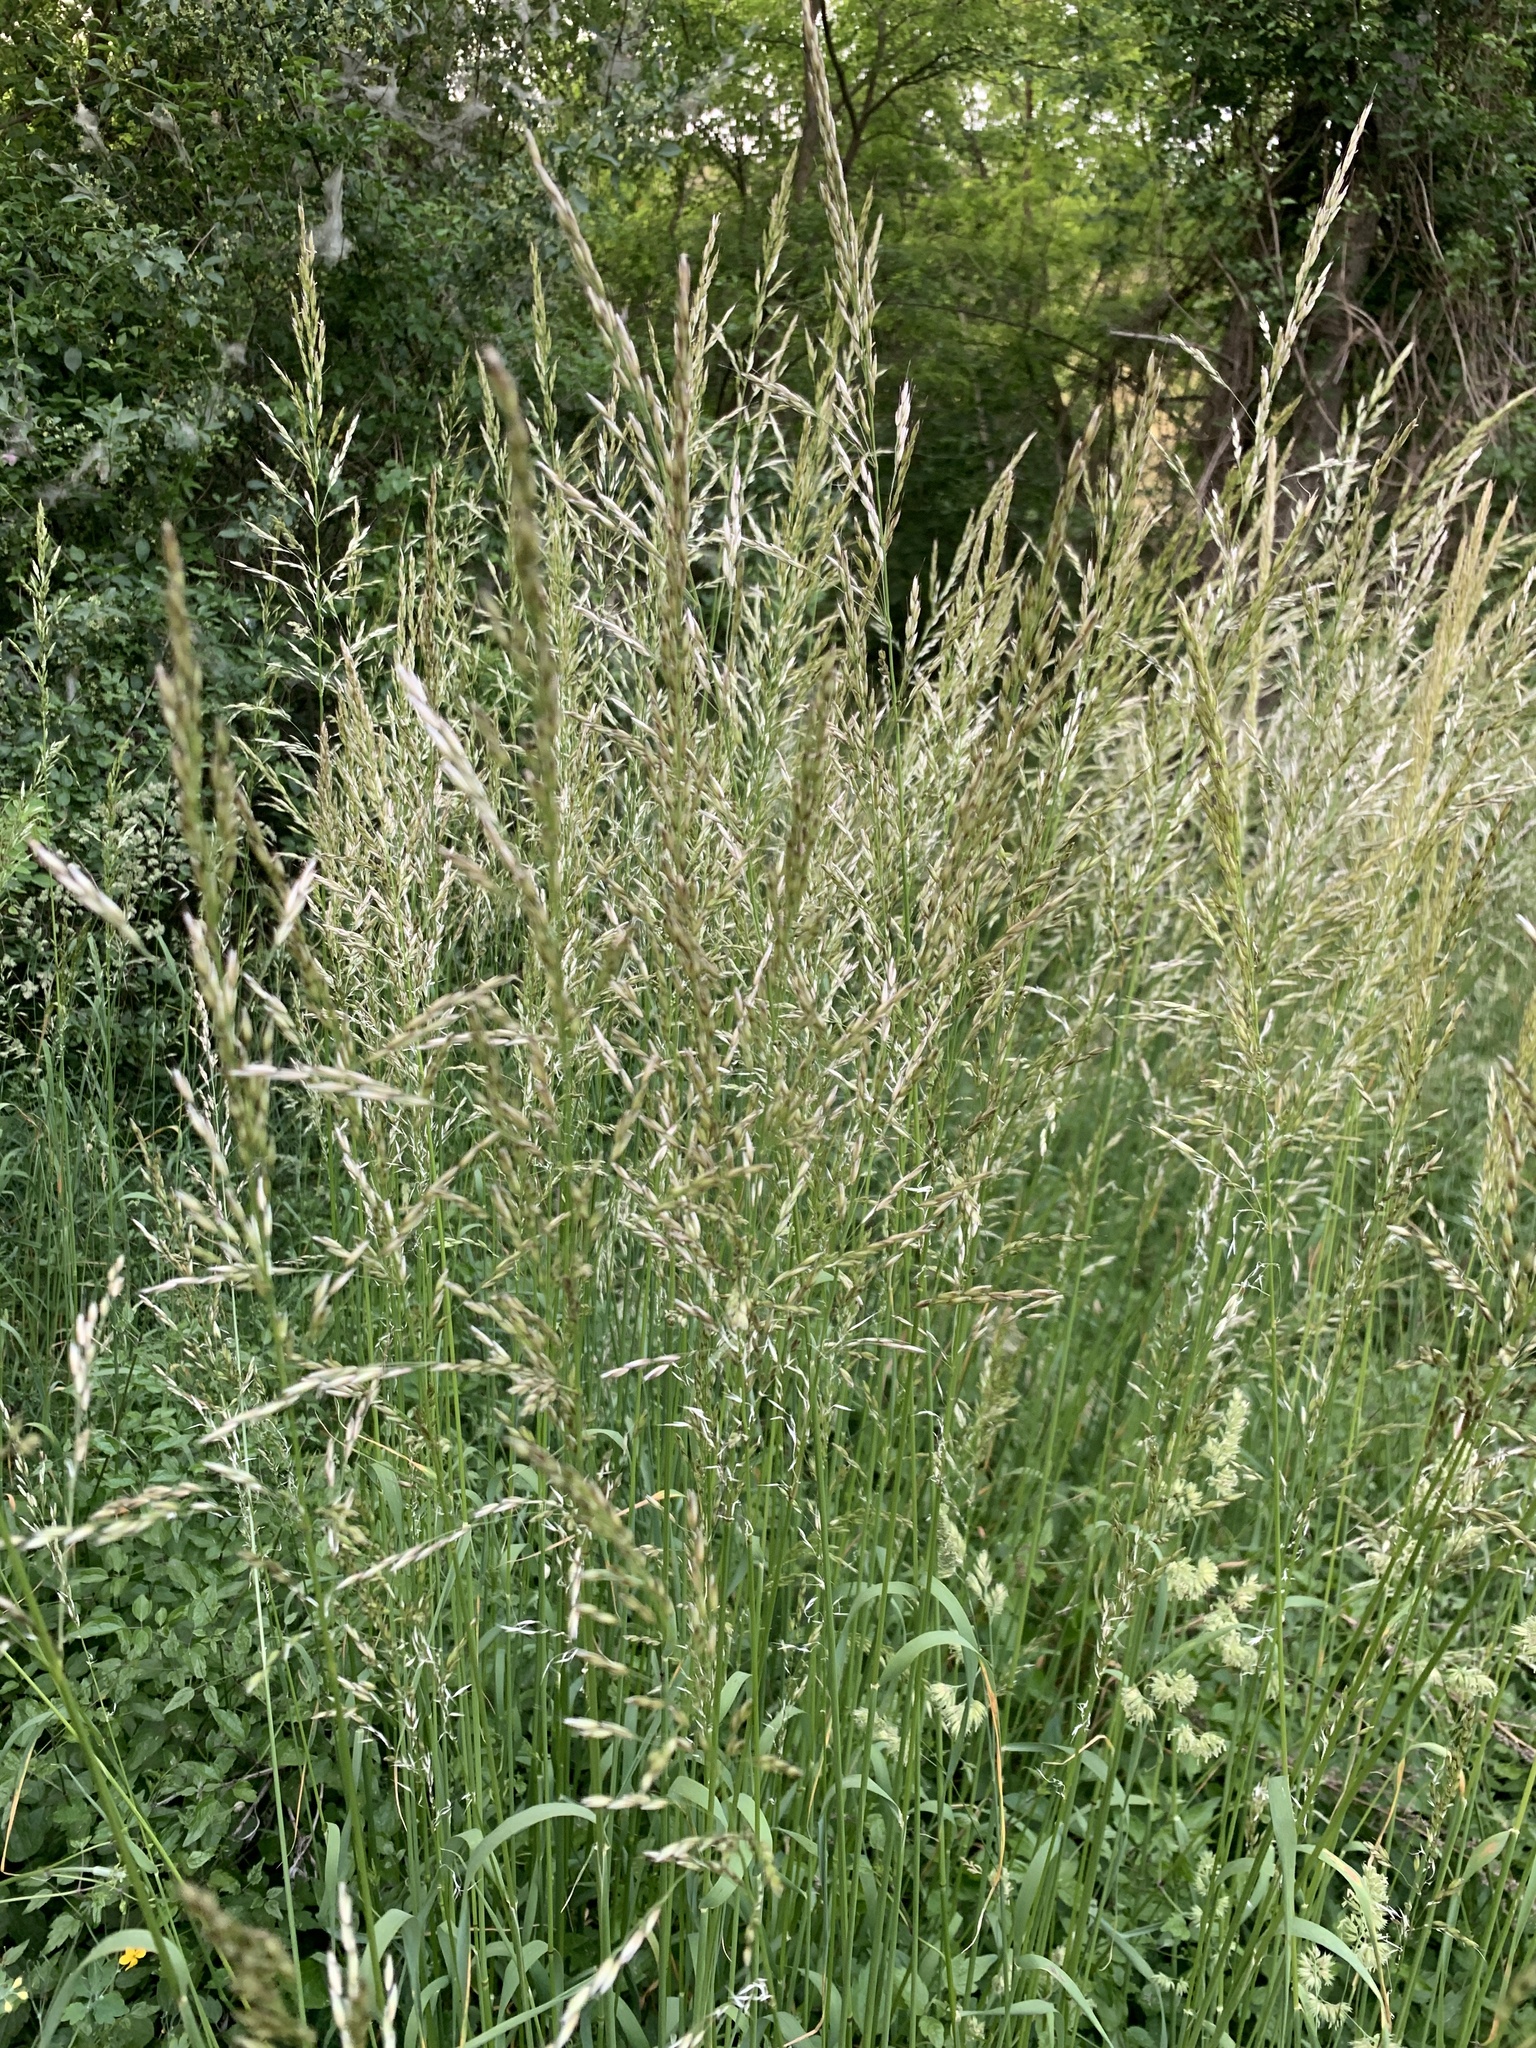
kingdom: Plantae
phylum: Tracheophyta
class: Liliopsida
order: Poales
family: Poaceae
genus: Arrhenatherum
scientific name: Arrhenatherum elatius
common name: Tall oatgrass
